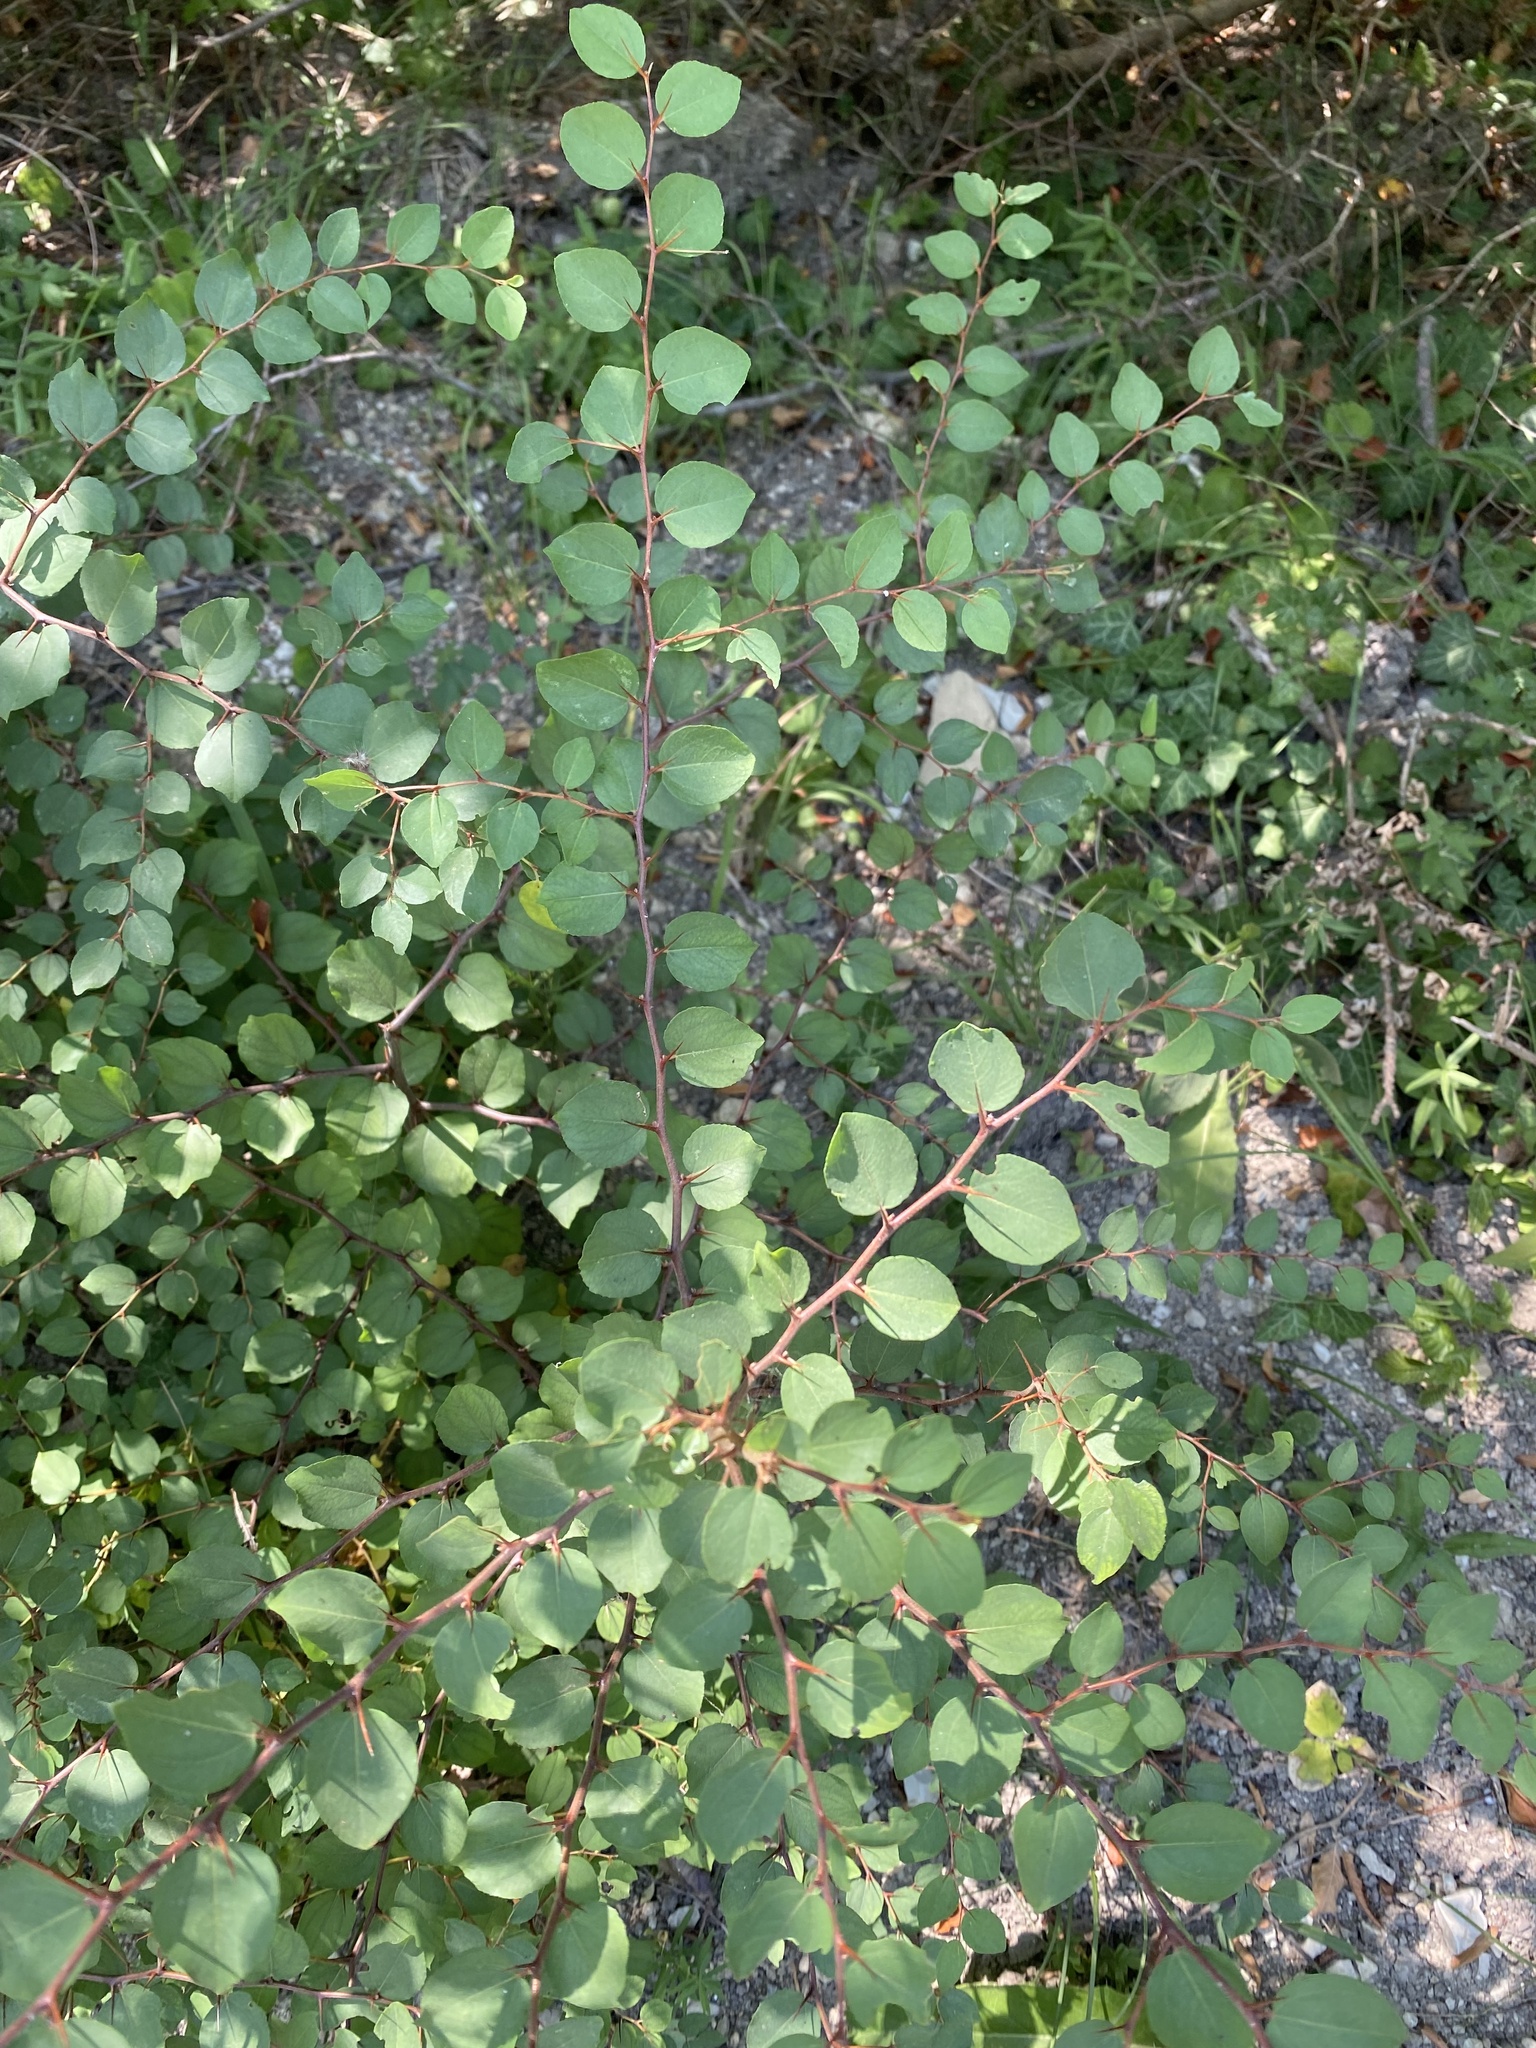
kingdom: Plantae
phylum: Tracheophyta
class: Magnoliopsida
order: Rosales
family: Rhamnaceae
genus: Paliurus
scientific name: Paliurus spina-christi
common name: Jeruselem thorn
